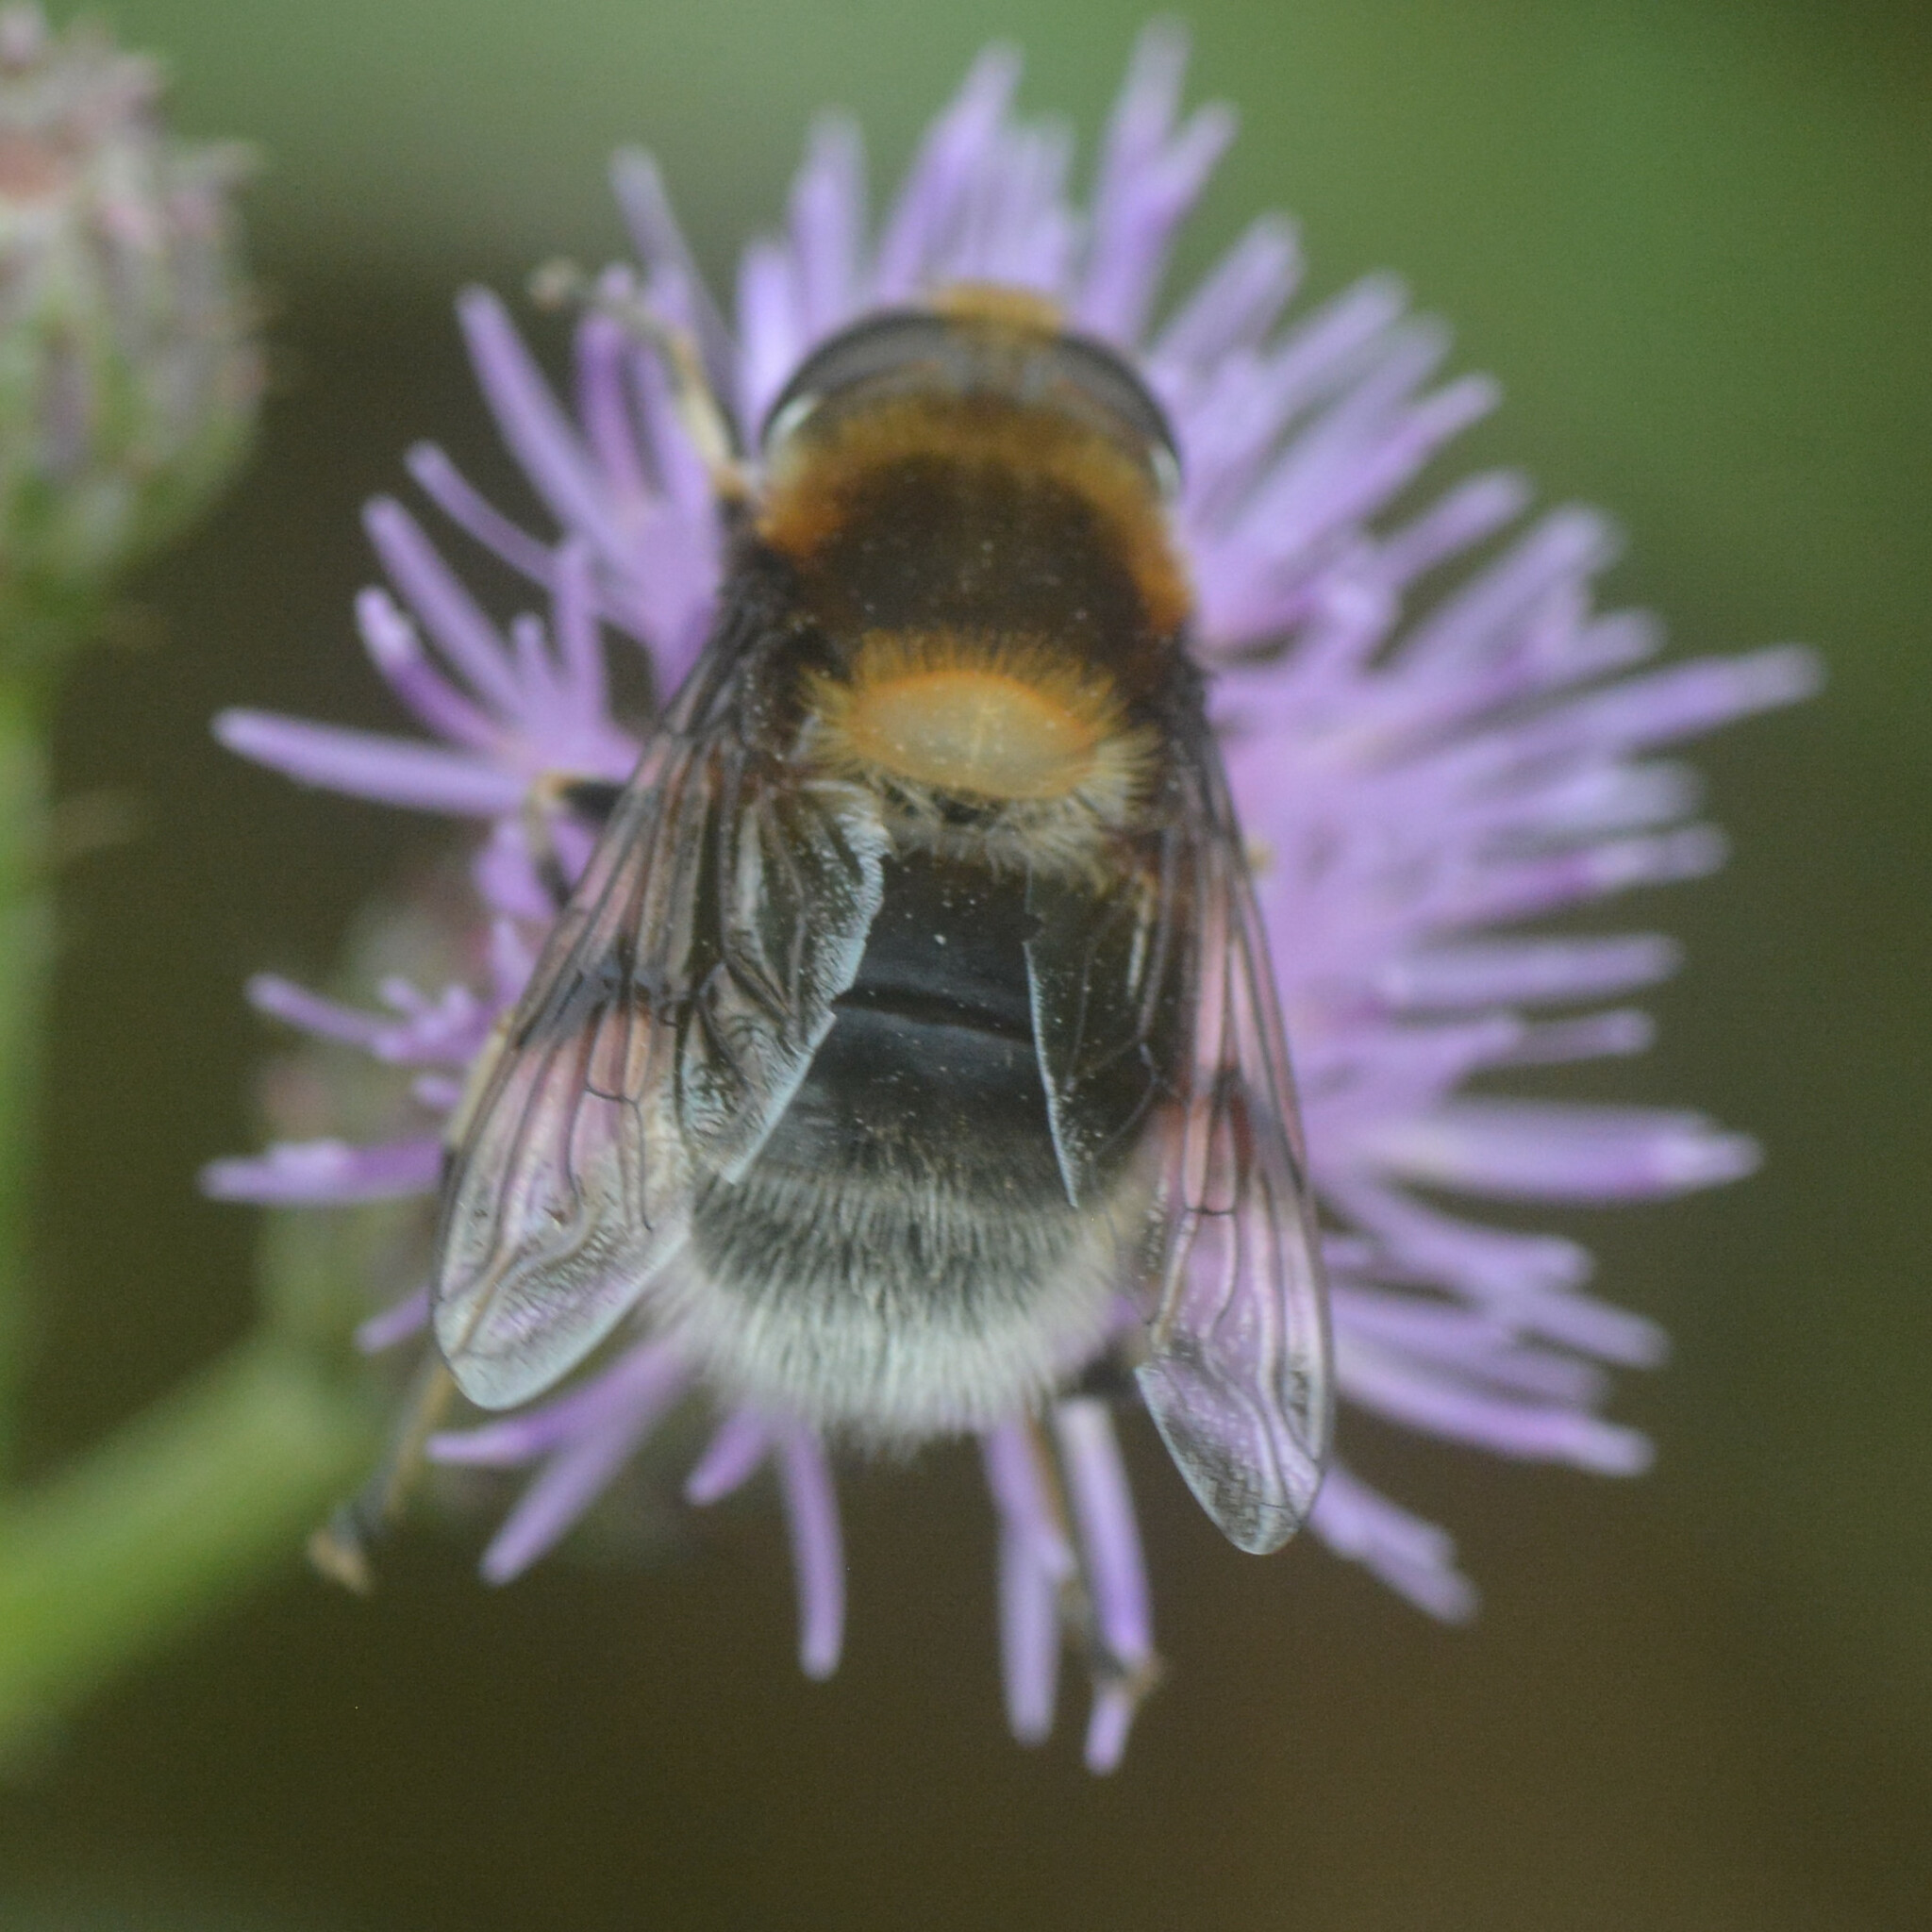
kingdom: Animalia
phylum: Arthropoda
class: Insecta
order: Diptera
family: Syrphidae
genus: Eristalis
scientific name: Eristalis intricaria
